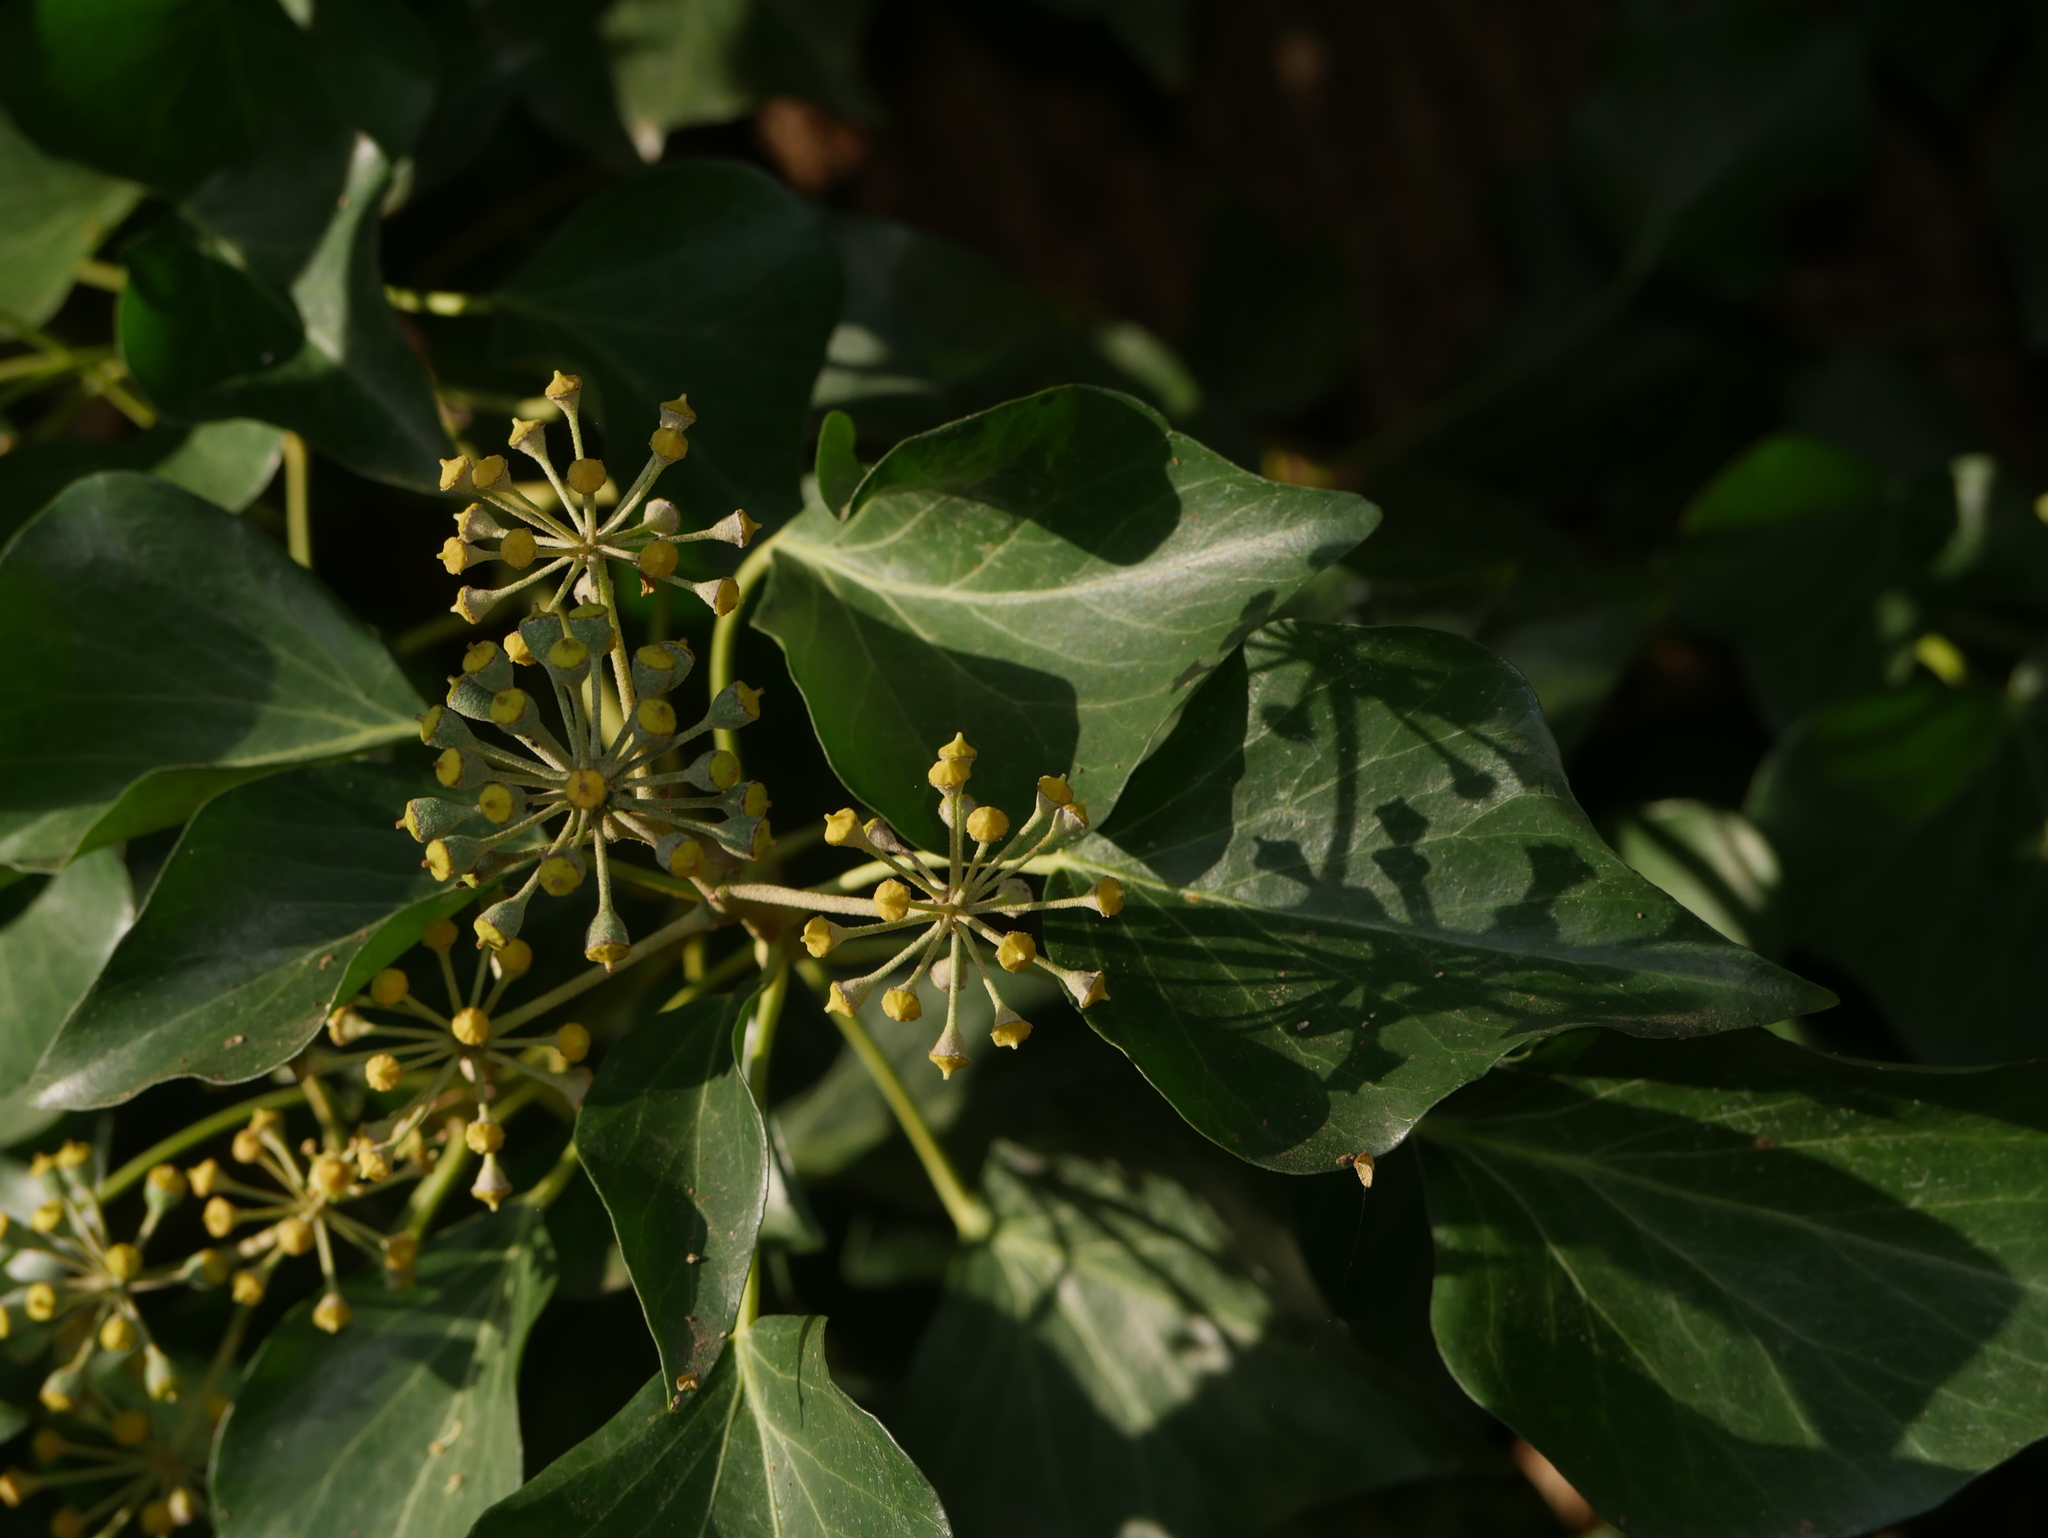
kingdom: Plantae
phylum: Tracheophyta
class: Magnoliopsida
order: Apiales
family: Araliaceae
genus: Hedera
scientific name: Hedera helix
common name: Ivy
